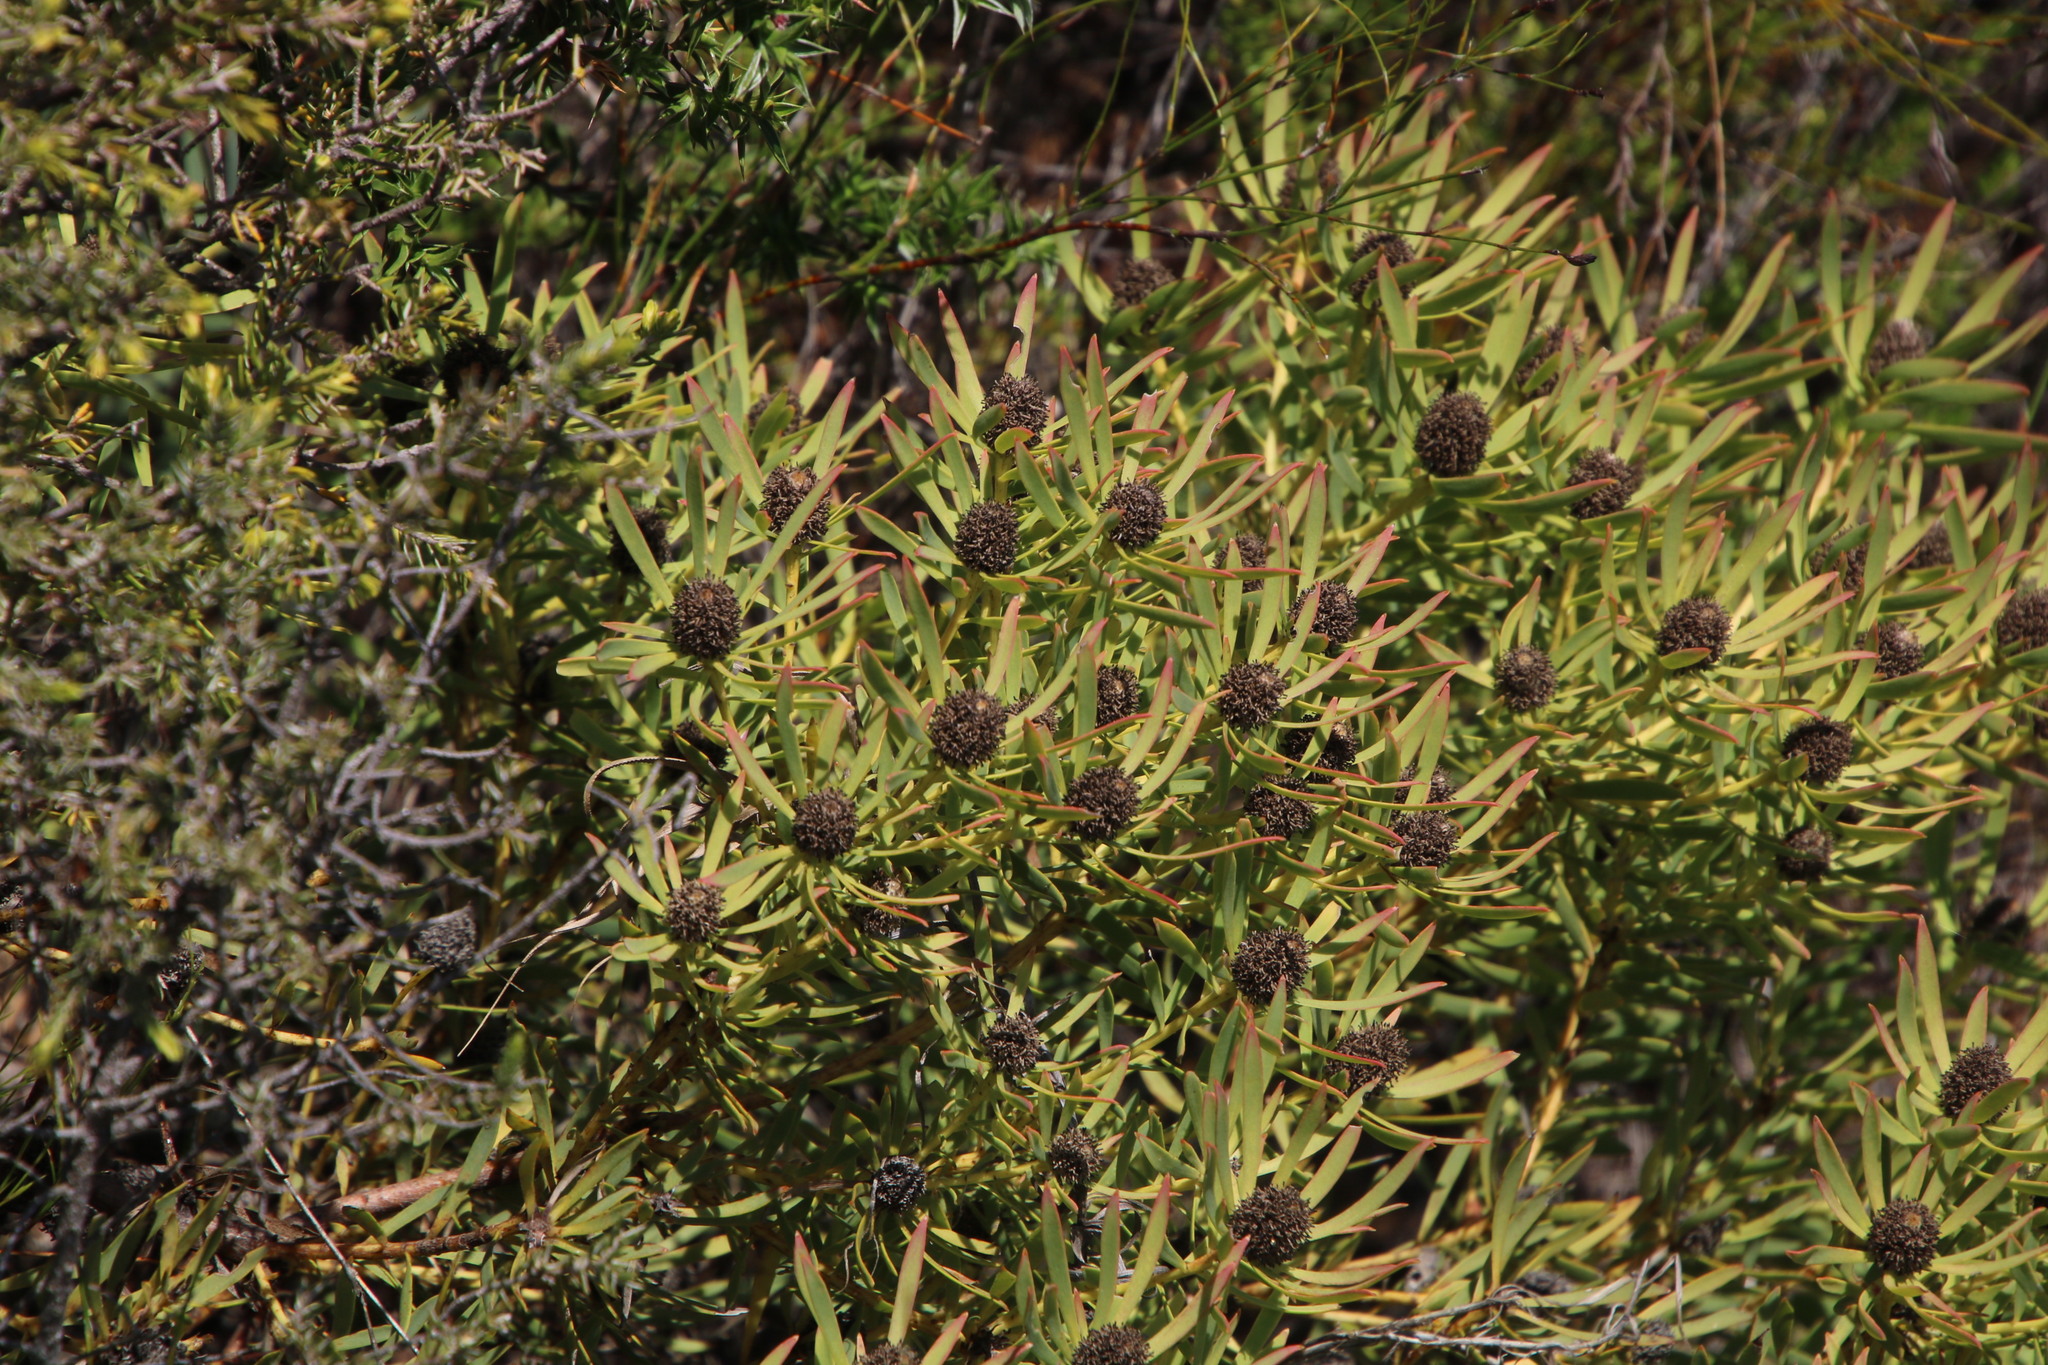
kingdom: Plantae
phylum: Tracheophyta
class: Magnoliopsida
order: Proteales
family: Proteaceae
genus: Leucadendron
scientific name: Leucadendron salignum
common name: Common sunshine conebush
